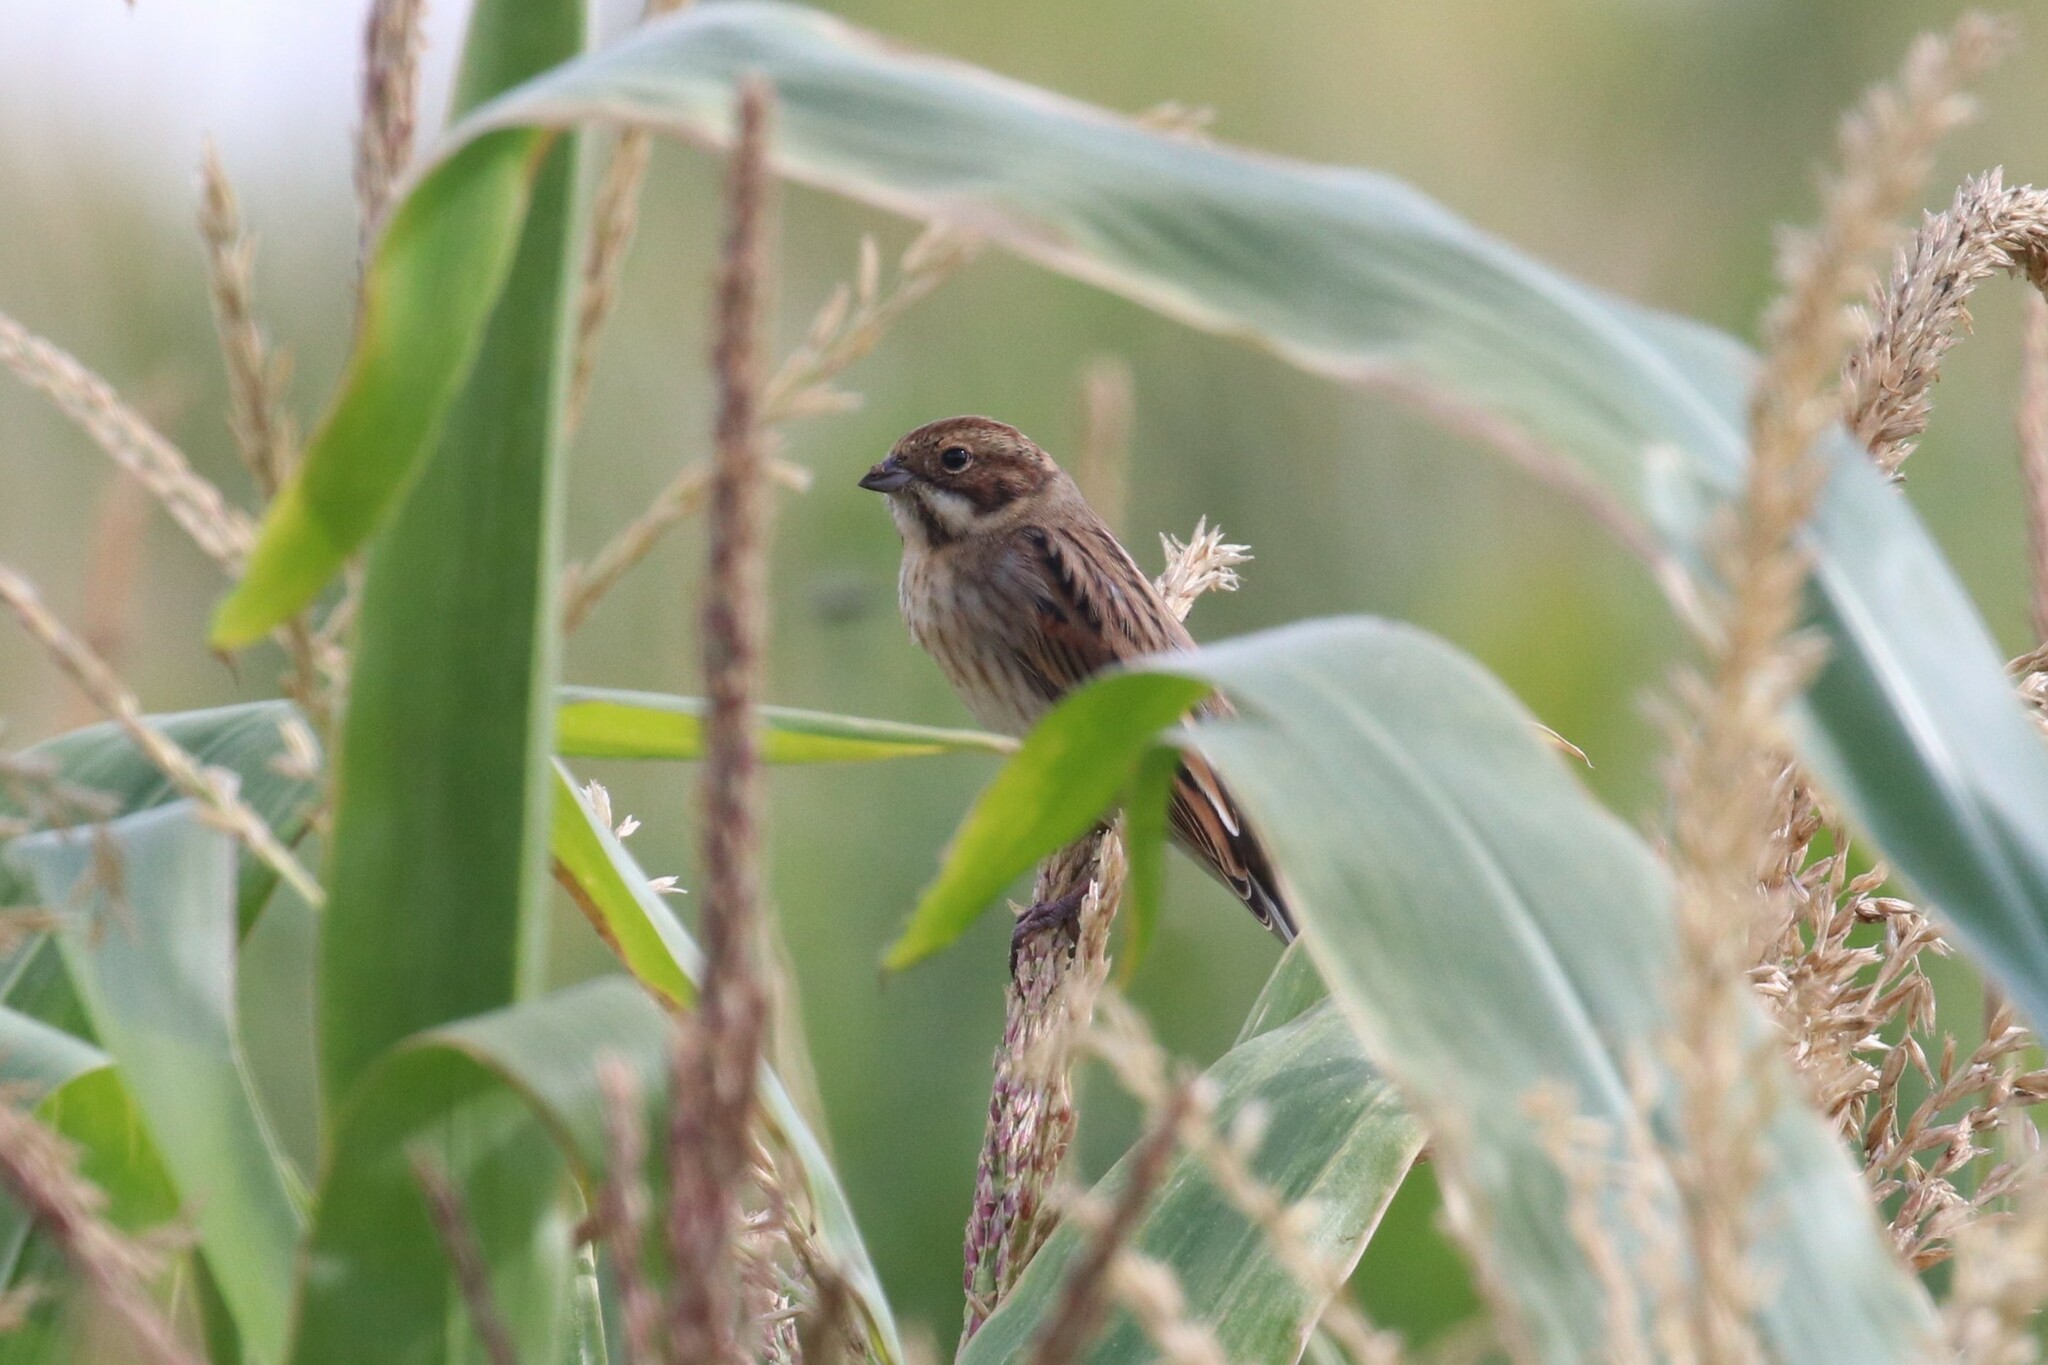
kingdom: Animalia
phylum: Chordata
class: Aves
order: Passeriformes
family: Emberizidae
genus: Emberiza
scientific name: Emberiza schoeniclus
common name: Reed bunting
